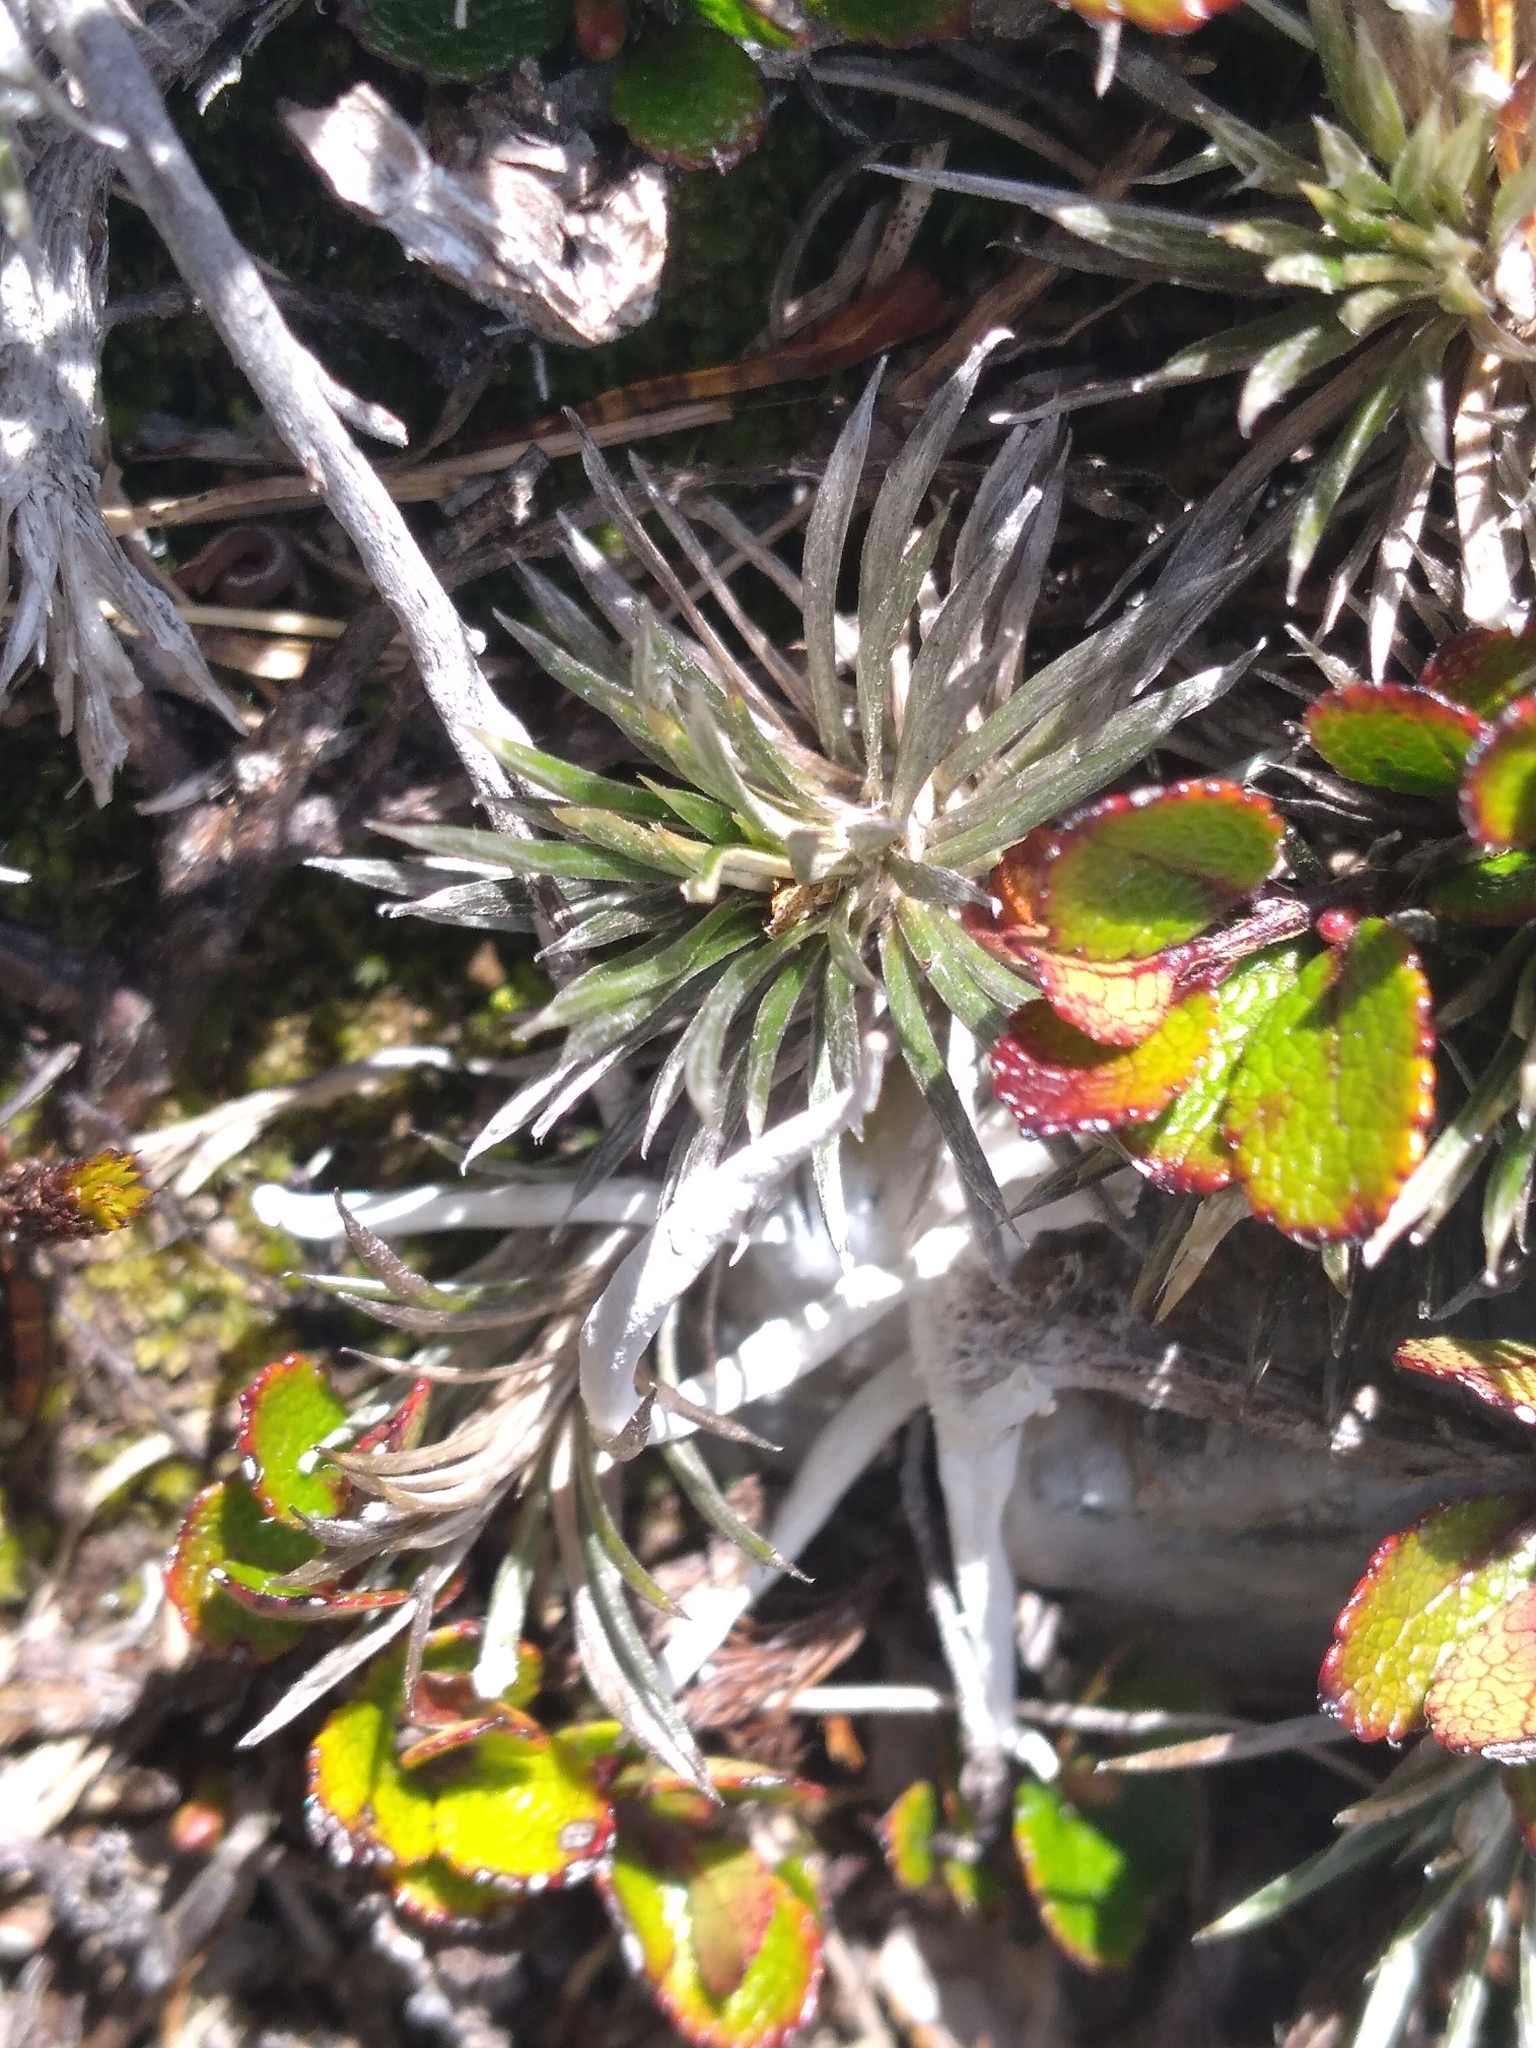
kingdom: Plantae
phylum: Tracheophyta
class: Magnoliopsida
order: Asterales
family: Asteraceae
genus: Celmisia
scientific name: Celmisia laricifolia
